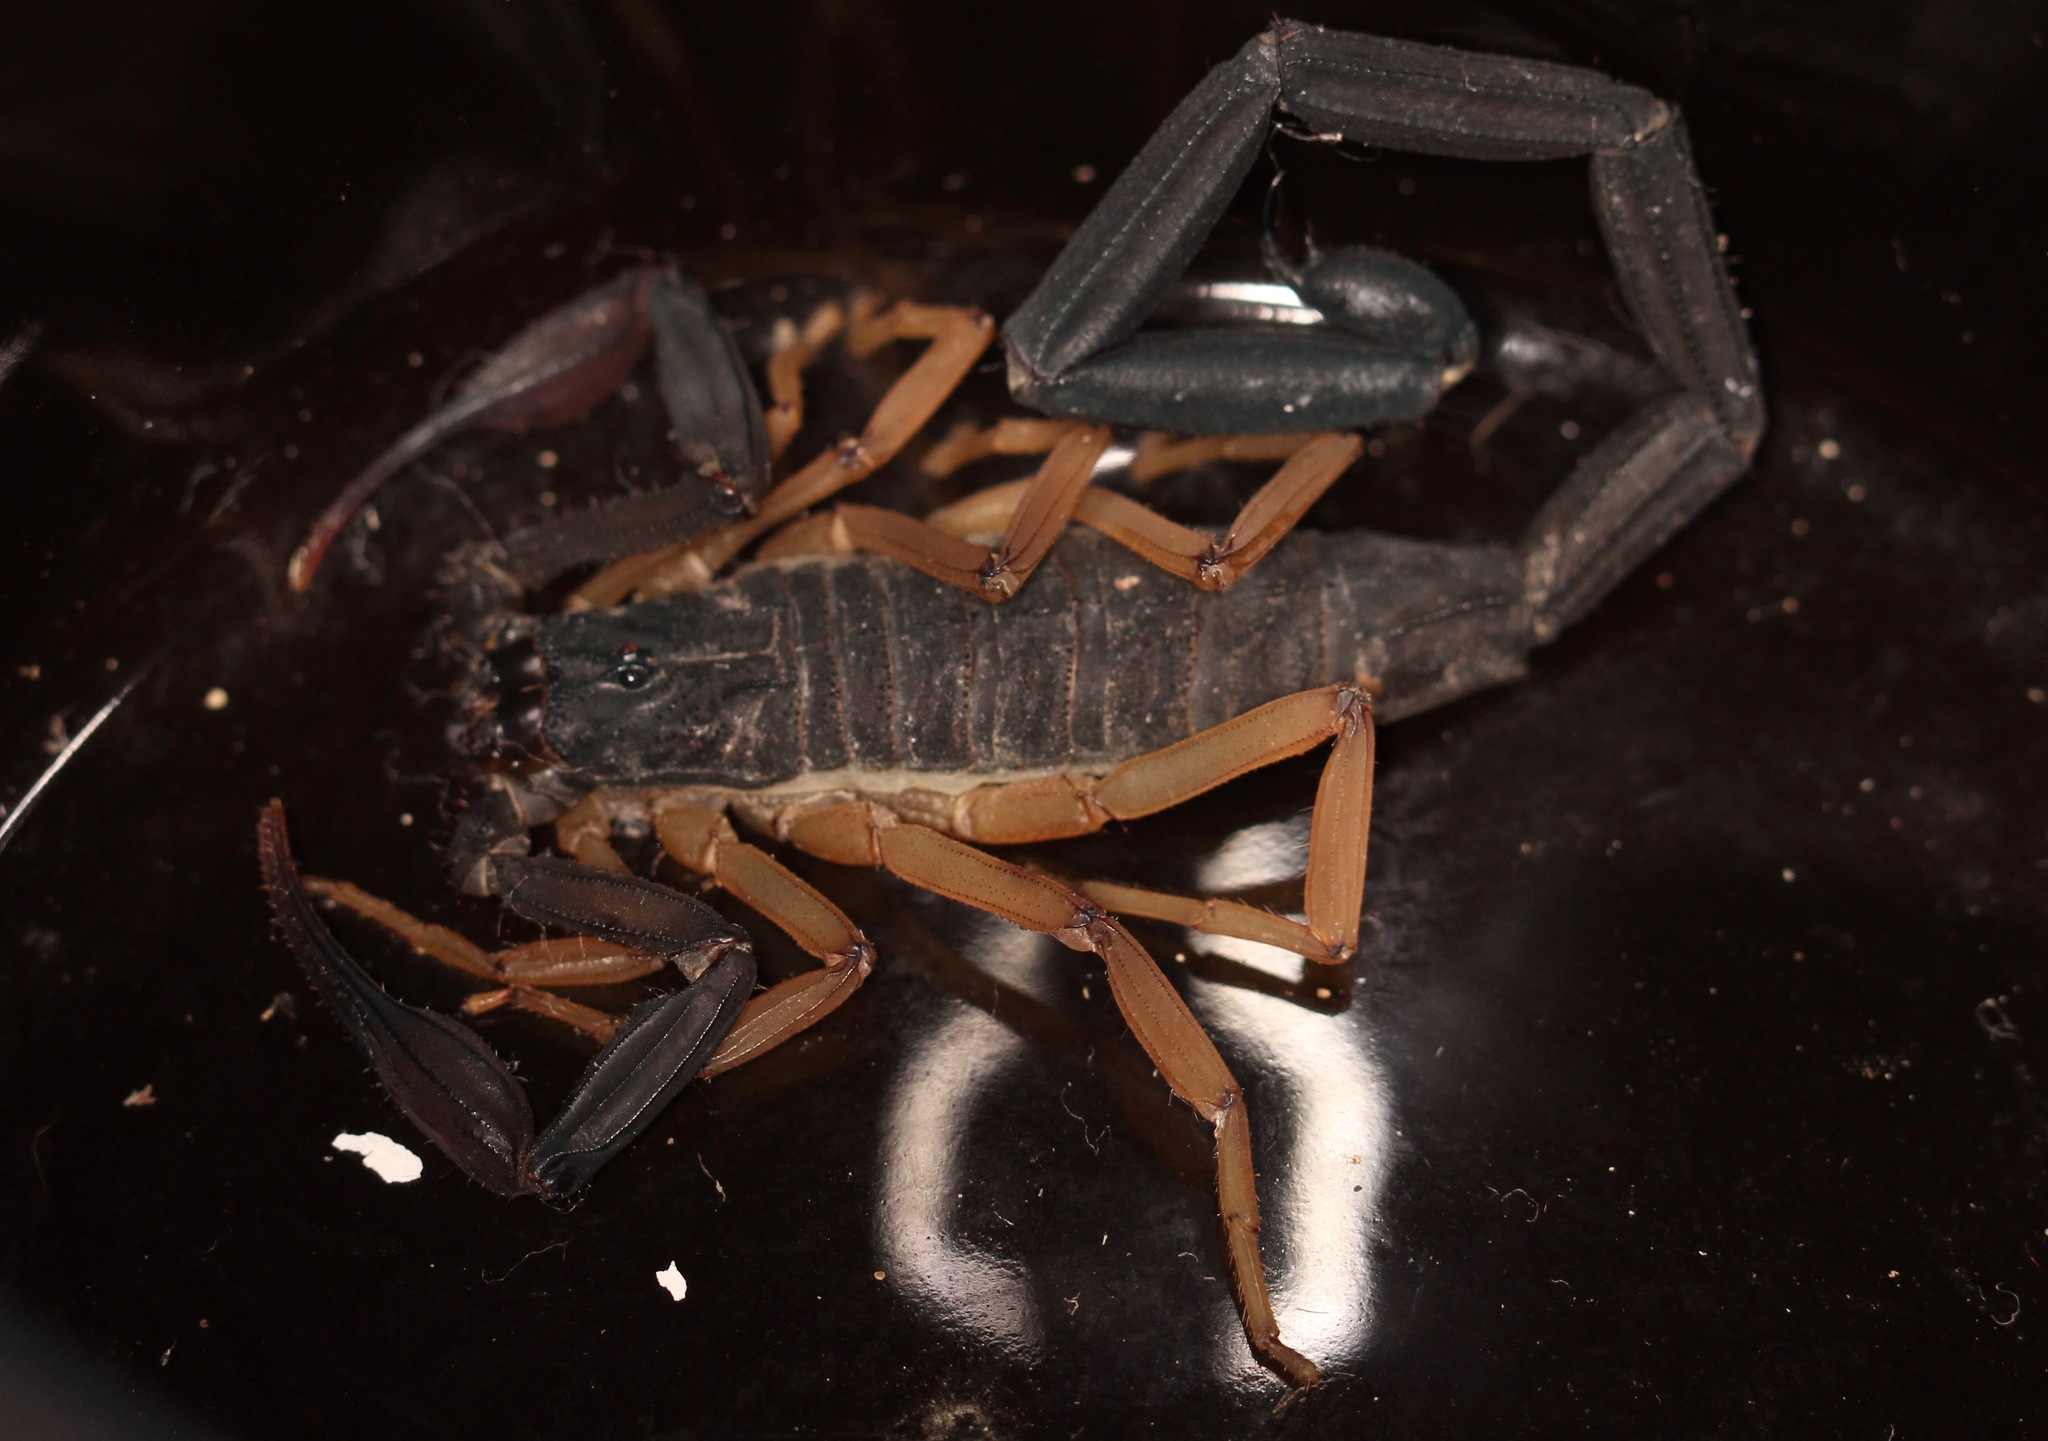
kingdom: Animalia
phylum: Arthropoda
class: Arachnida
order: Scorpiones
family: Buthidae
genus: Centruroides
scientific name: Centruroides gracilis
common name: Scorpions
